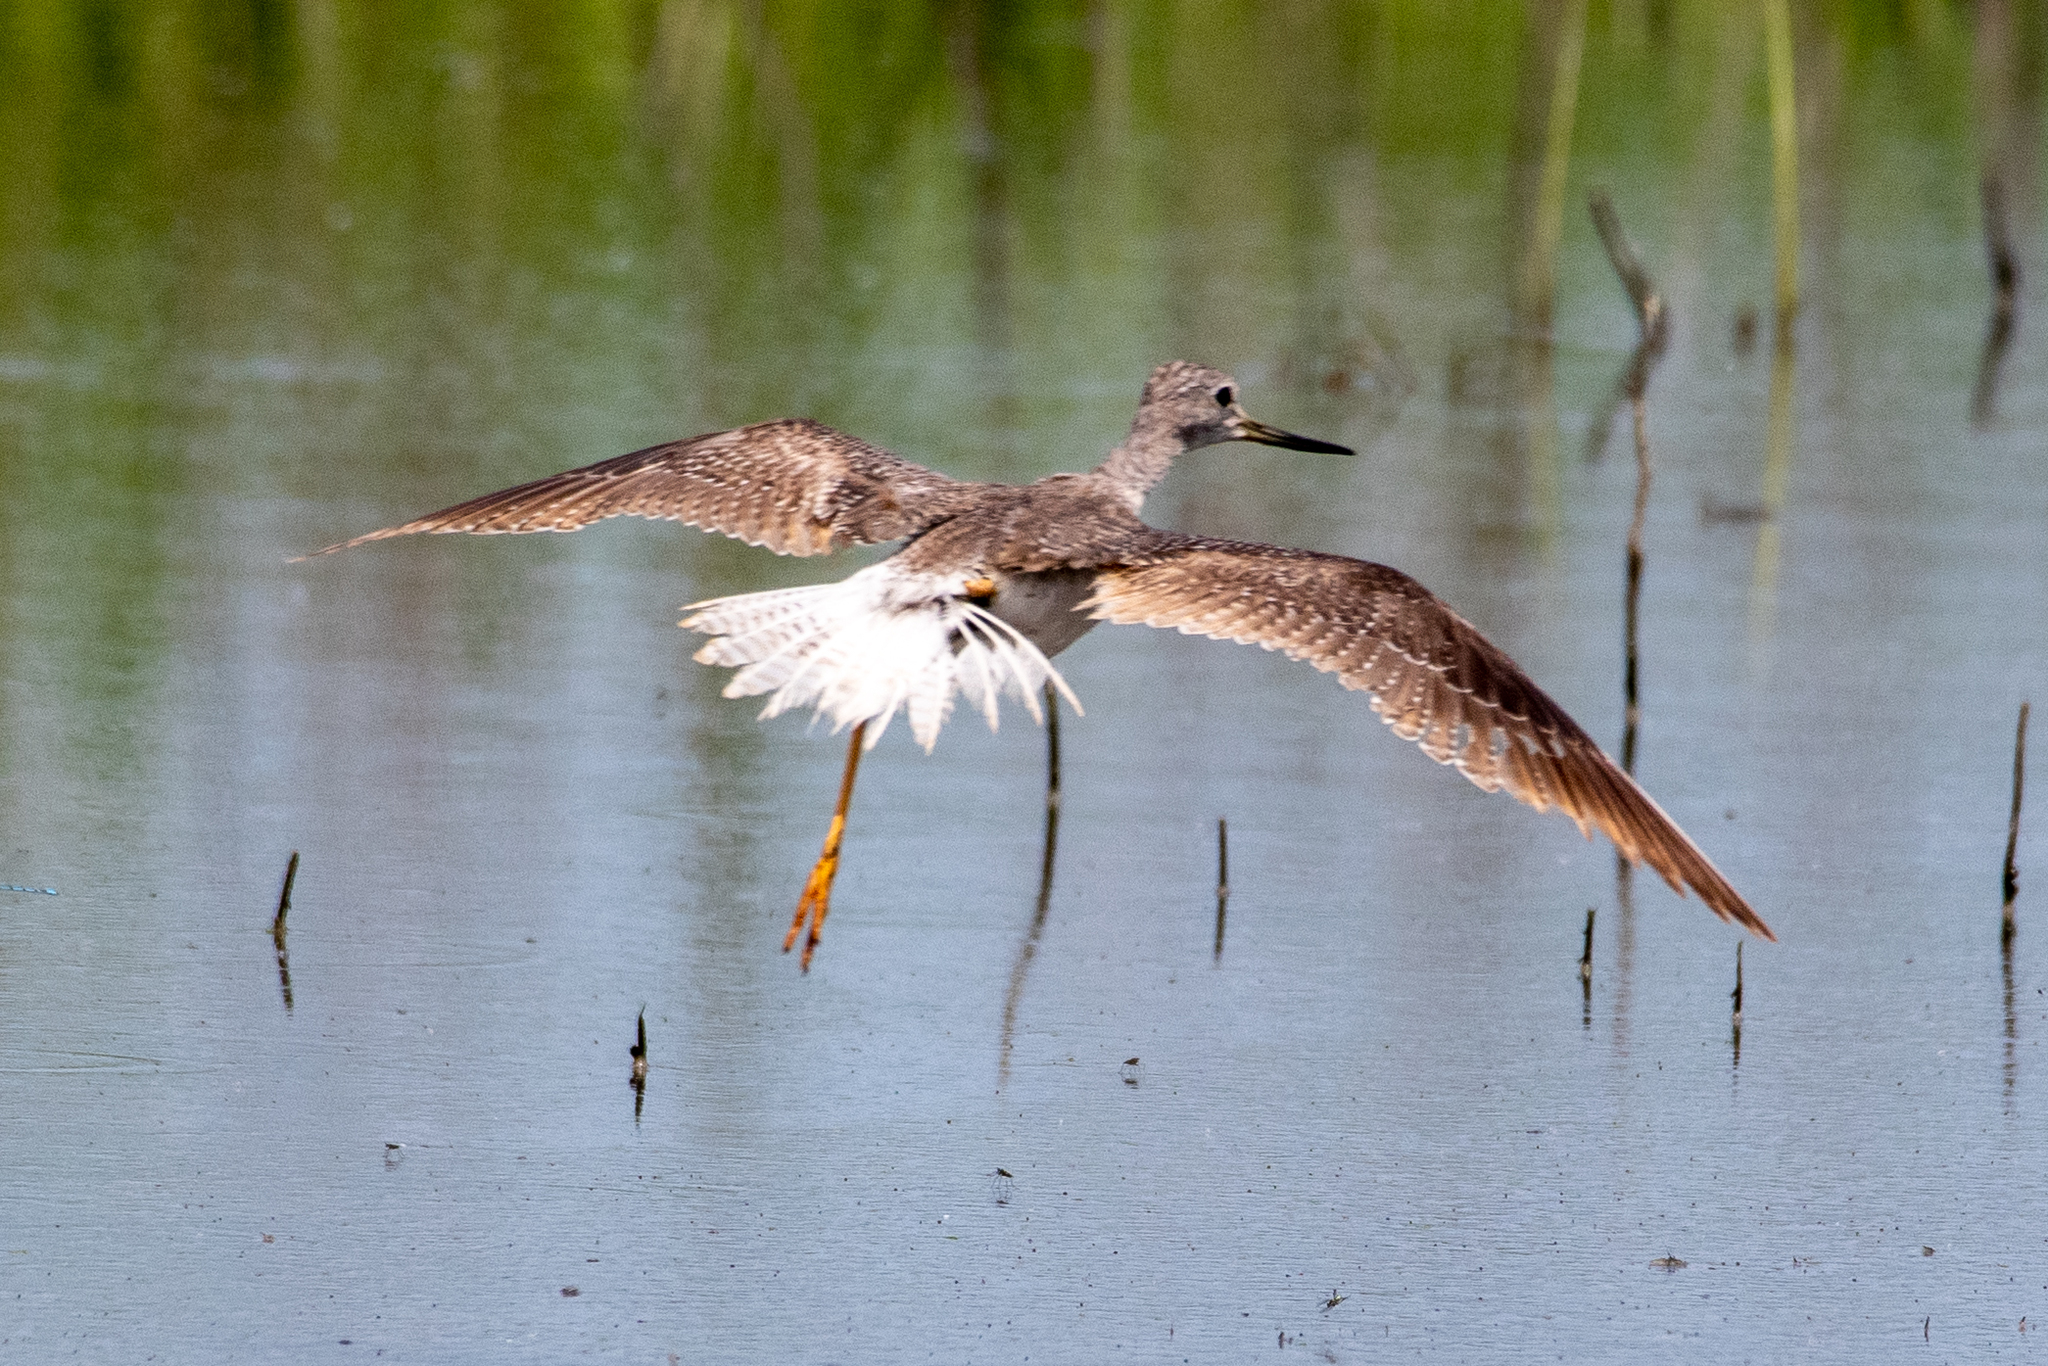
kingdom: Animalia
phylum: Chordata
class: Aves
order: Charadriiformes
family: Scolopacidae
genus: Tringa
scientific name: Tringa melanoleuca
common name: Greater yellowlegs
